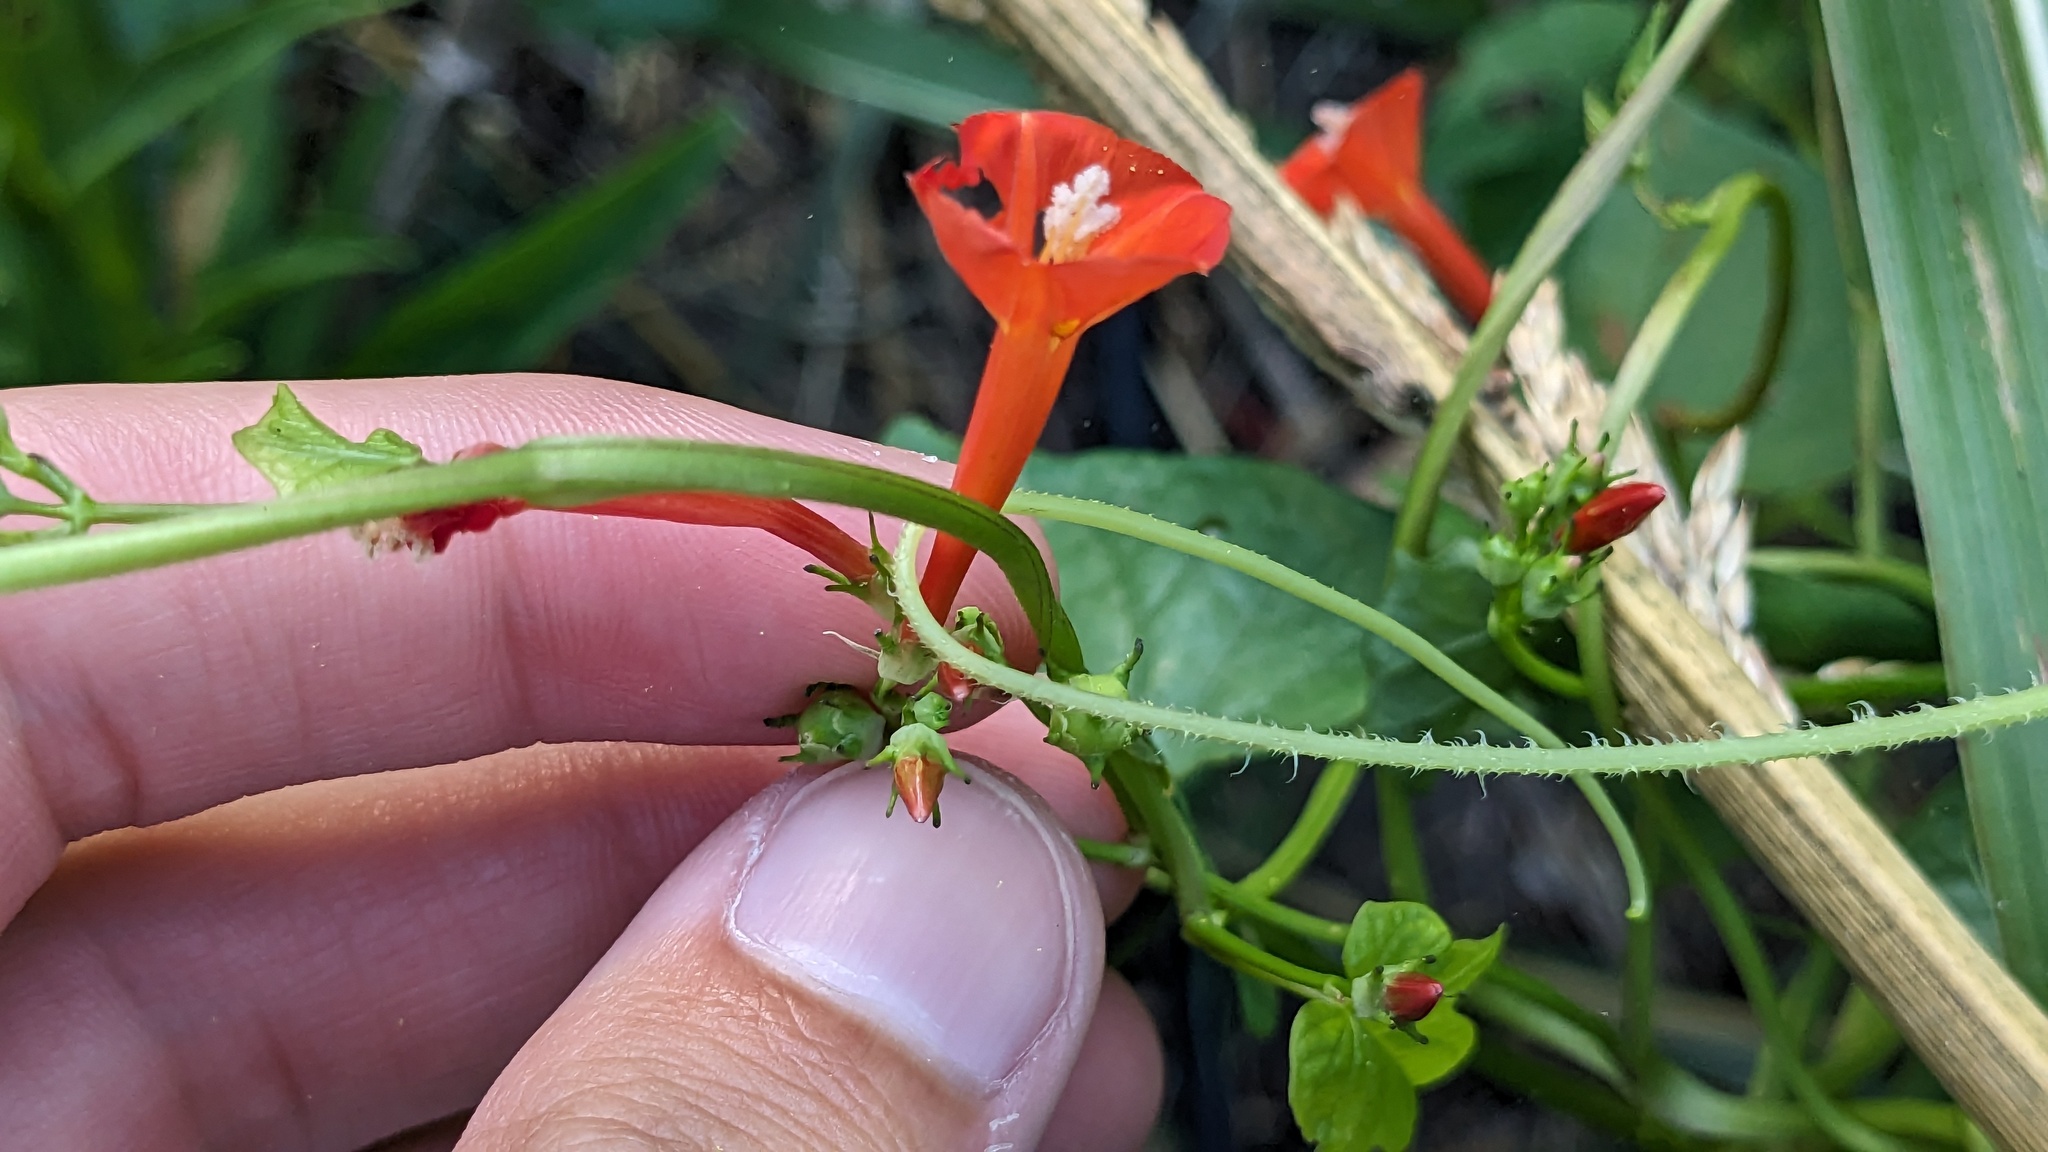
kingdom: Plantae
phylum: Tracheophyta
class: Magnoliopsida
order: Solanales
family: Convolvulaceae
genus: Ipomoea
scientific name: Ipomoea hederifolia
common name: Ivy-leaf morning-glory
